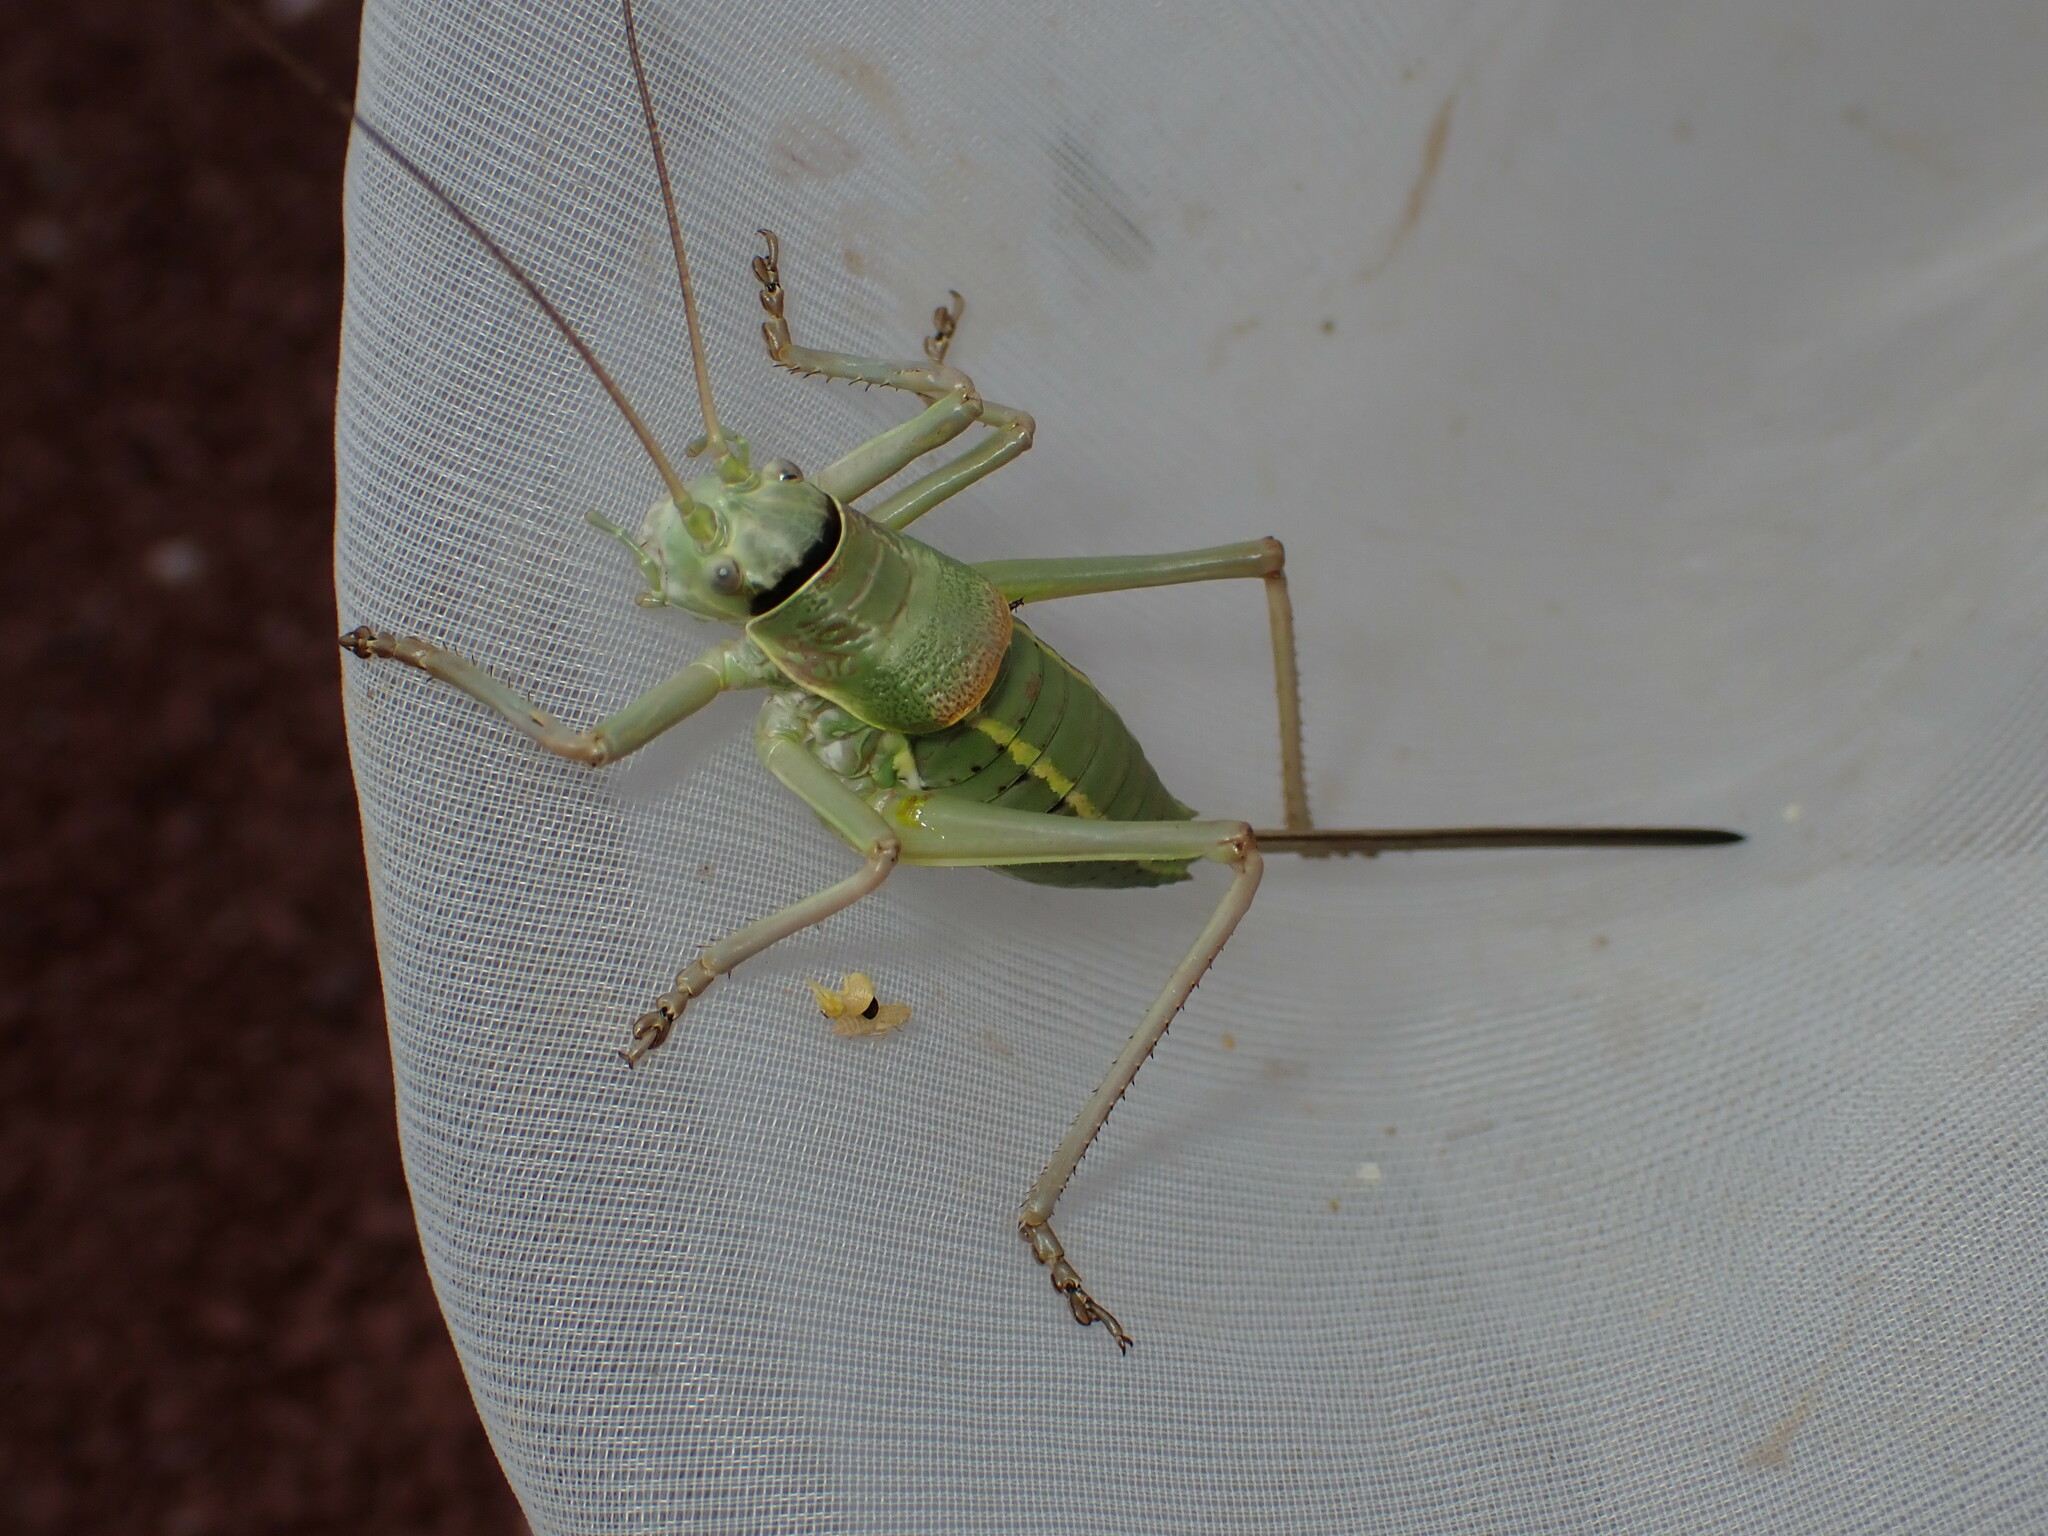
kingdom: Animalia
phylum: Arthropoda
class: Insecta
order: Orthoptera
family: Tettigoniidae
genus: Ephippiger
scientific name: Ephippiger terrestris
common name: Alpine saddle-backed bush-cricket
